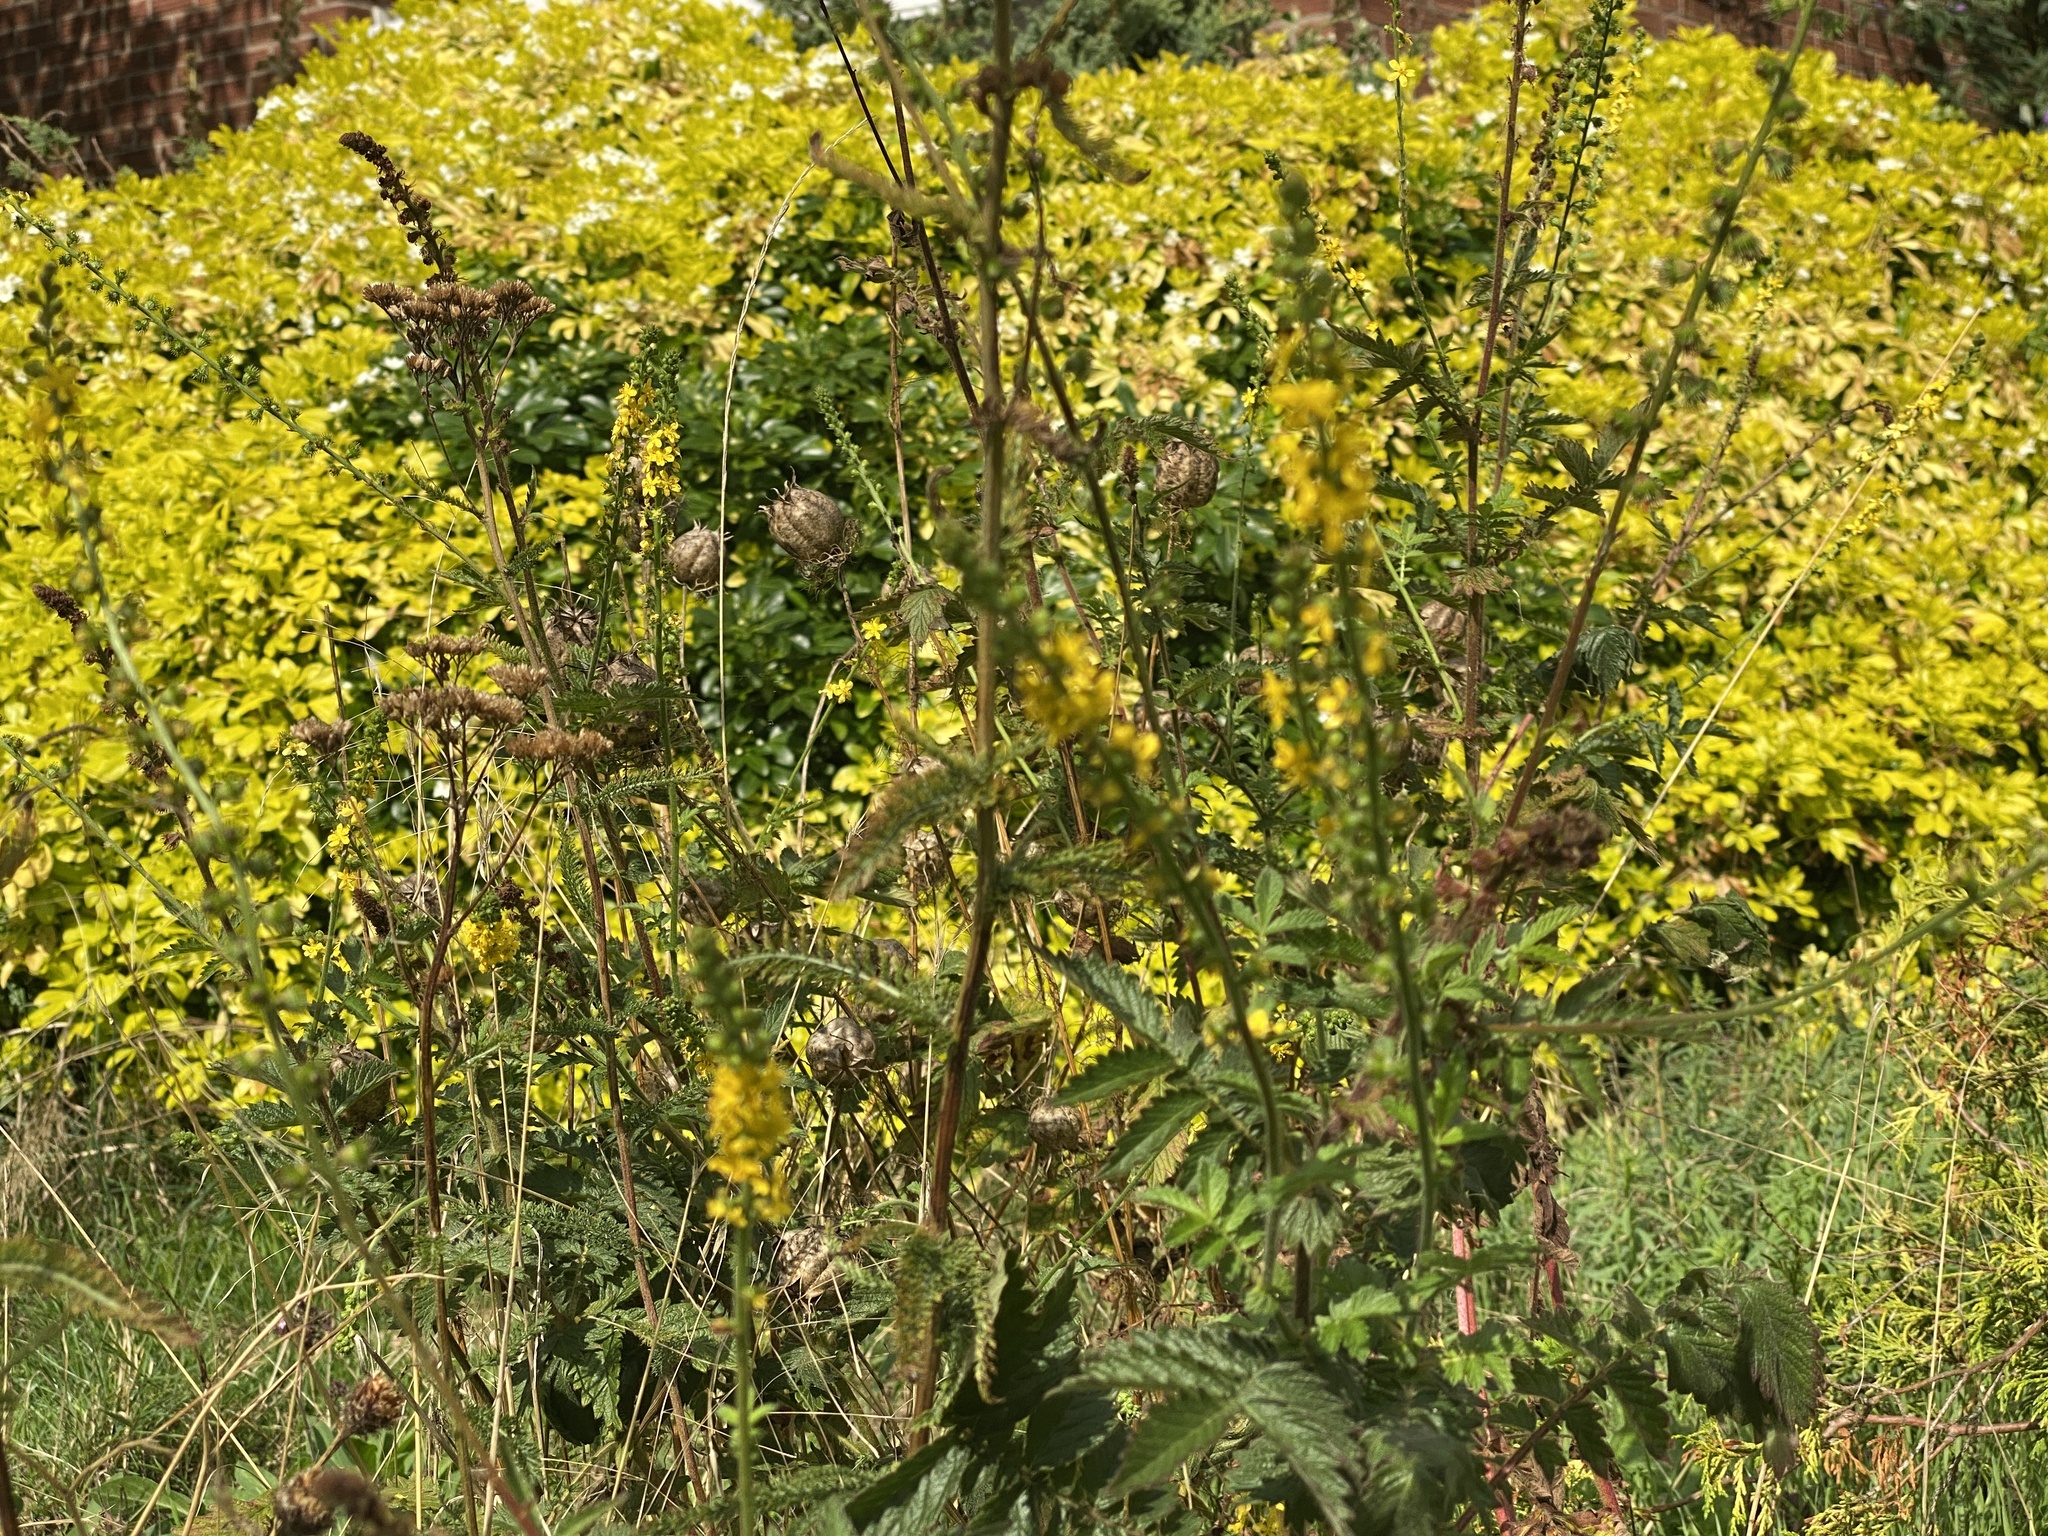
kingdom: Plantae
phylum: Tracheophyta
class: Magnoliopsida
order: Rosales
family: Rosaceae
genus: Agrimonia
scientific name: Agrimonia eupatoria
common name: Agrimony
